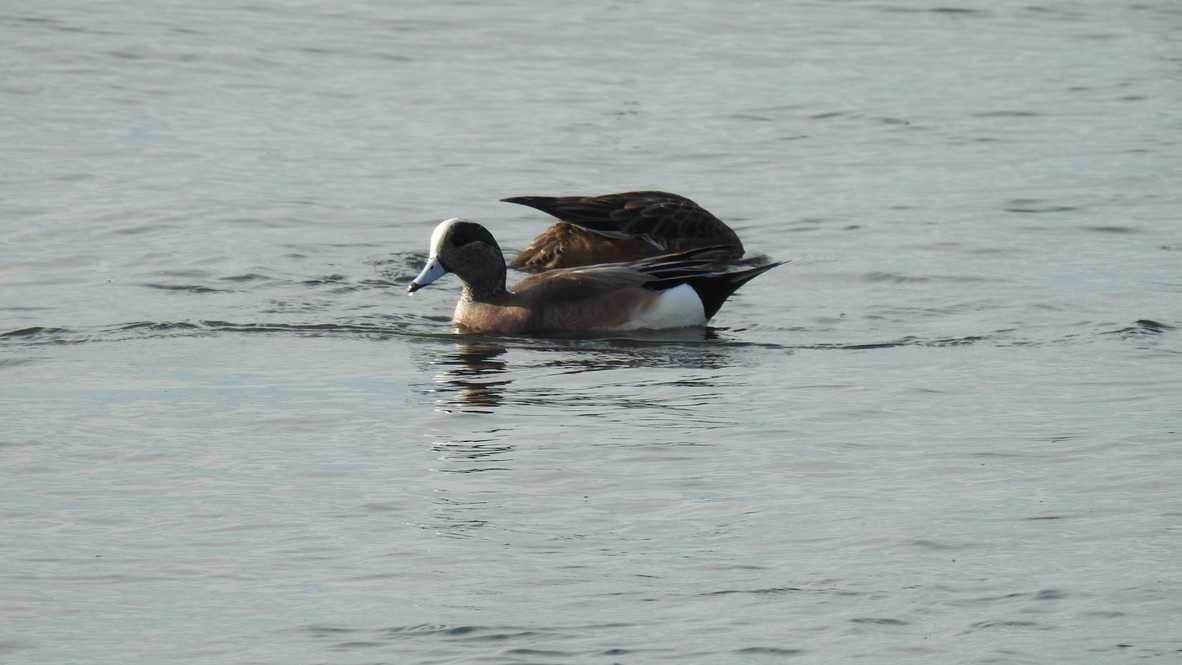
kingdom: Animalia
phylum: Chordata
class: Aves
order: Anseriformes
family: Anatidae
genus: Mareca
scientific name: Mareca americana
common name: American wigeon
